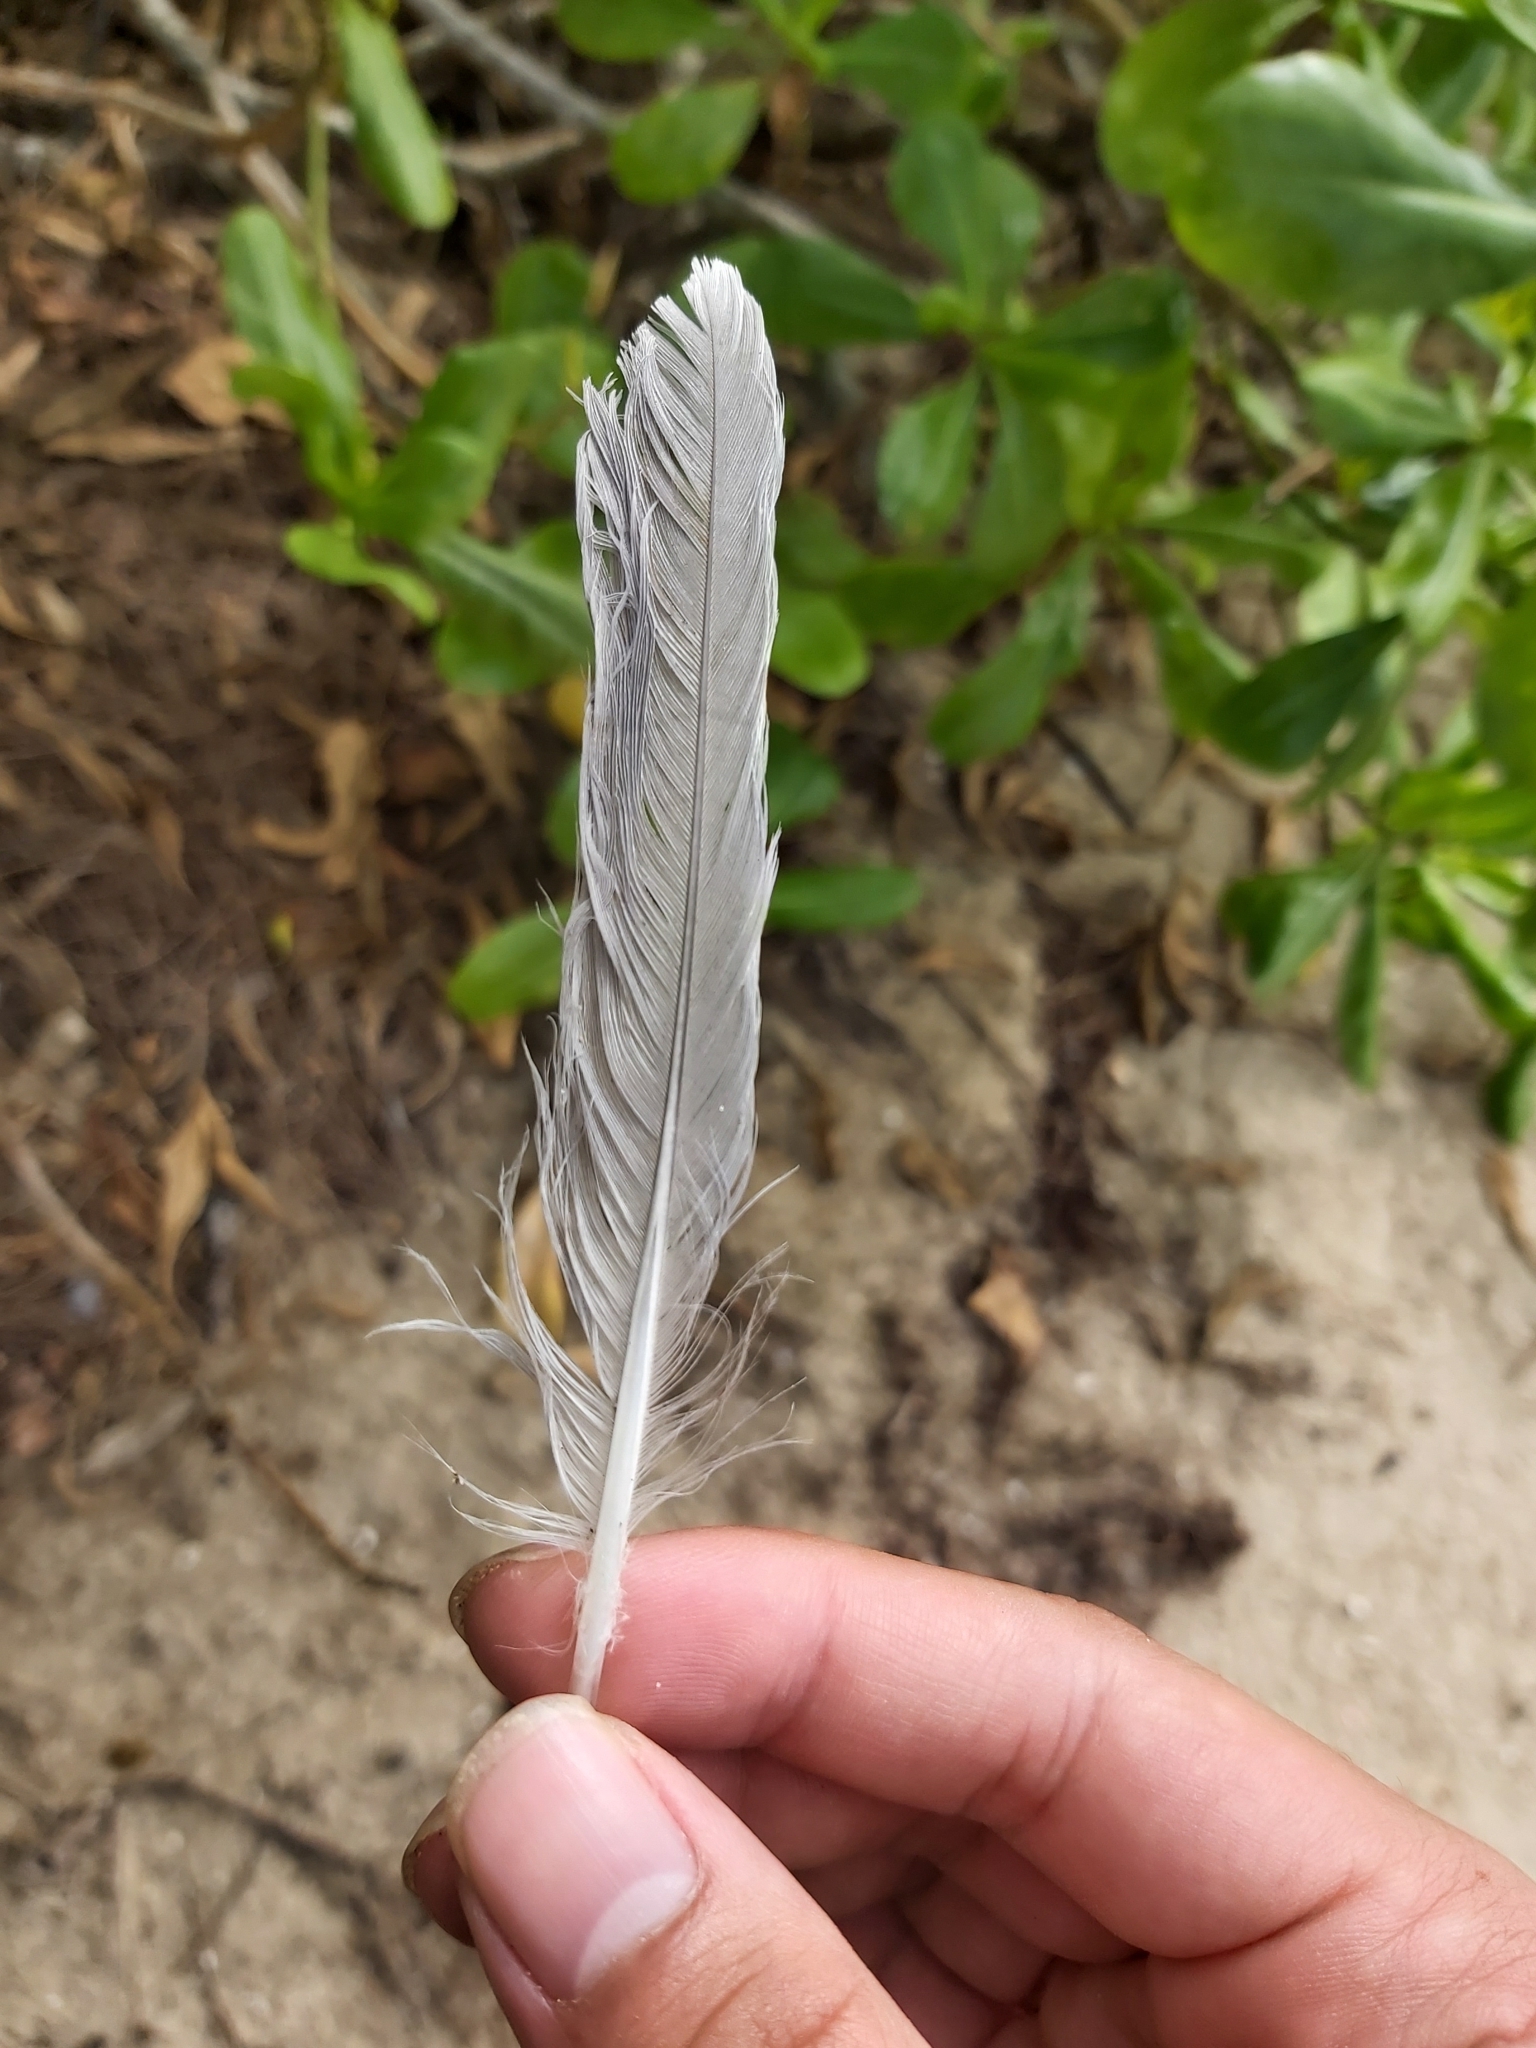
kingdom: Animalia
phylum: Chordata
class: Aves
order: Charadriiformes
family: Laridae
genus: Chroicocephalus
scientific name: Chroicocephalus novaehollandiae
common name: Silver gull
